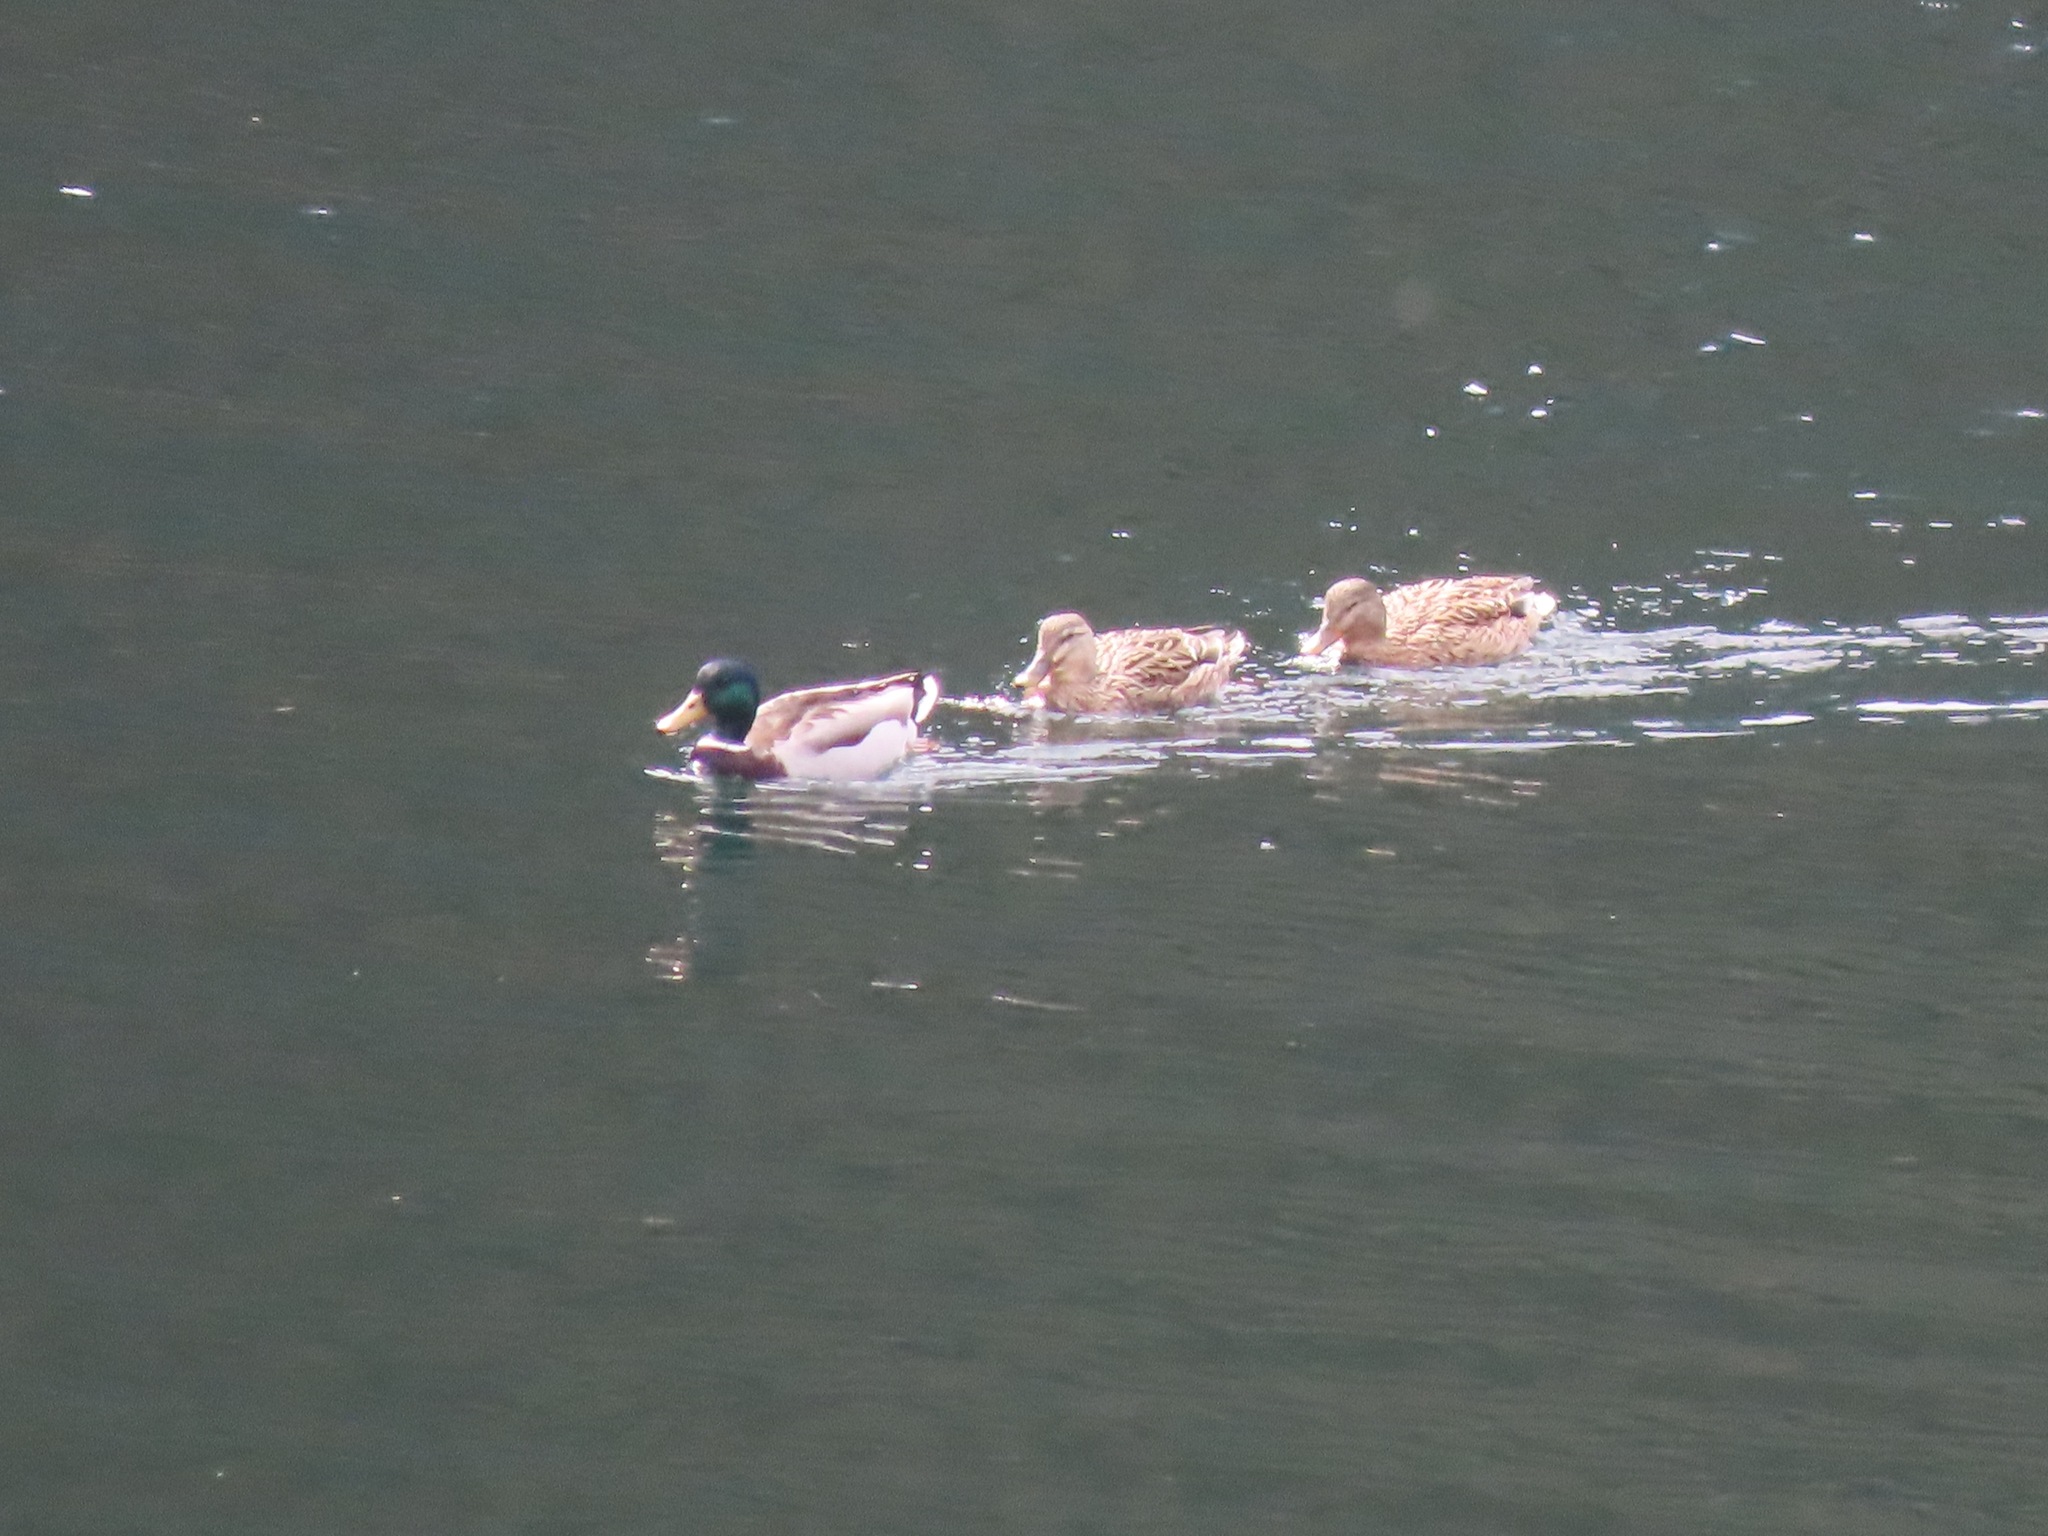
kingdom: Animalia
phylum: Chordata
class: Aves
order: Anseriformes
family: Anatidae
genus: Anas
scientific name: Anas platyrhynchos
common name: Mallard
